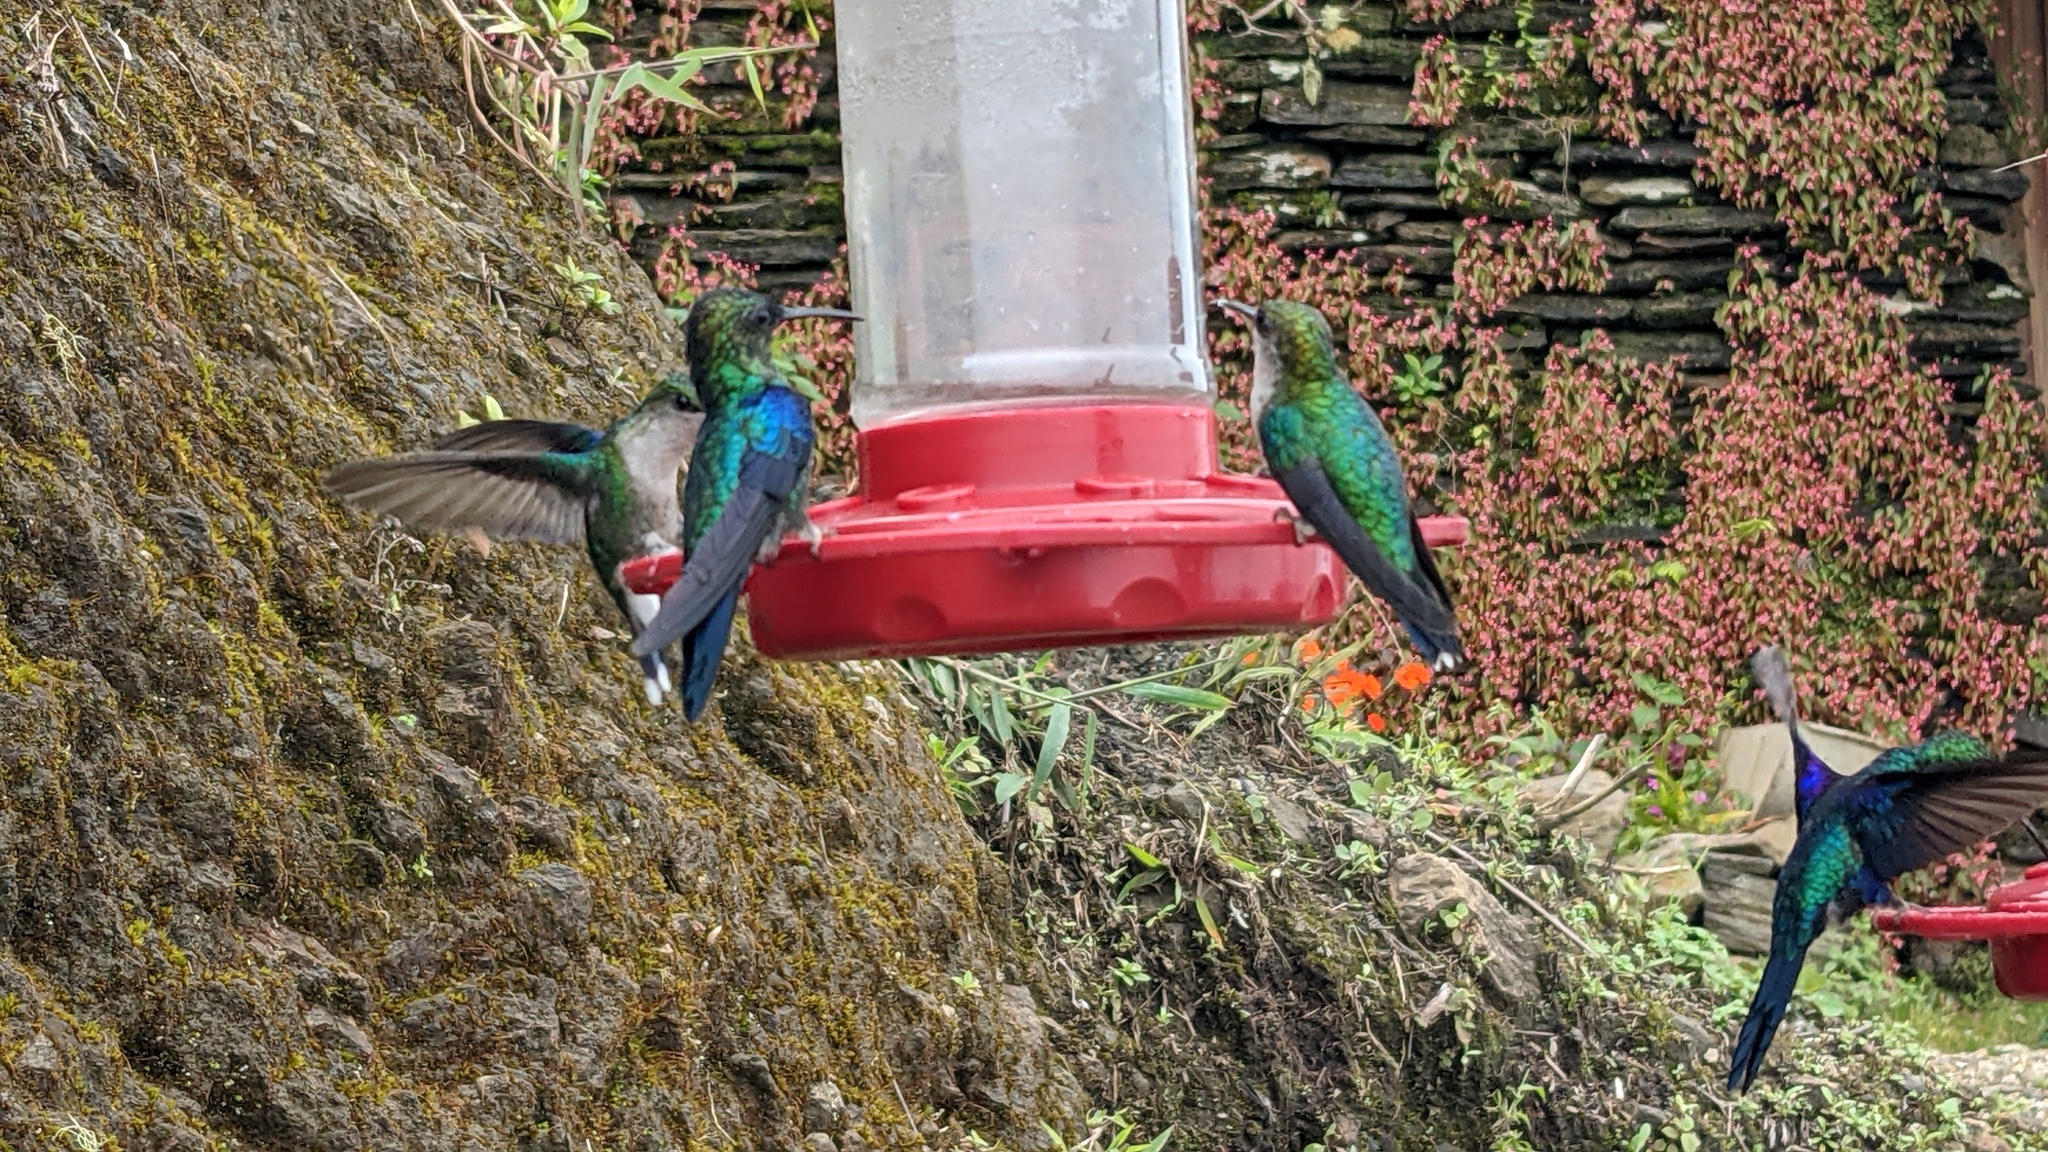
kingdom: Animalia
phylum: Chordata
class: Aves
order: Apodiformes
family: Trochilidae
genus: Thalurania
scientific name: Thalurania colombica
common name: Crowned woodnymph
